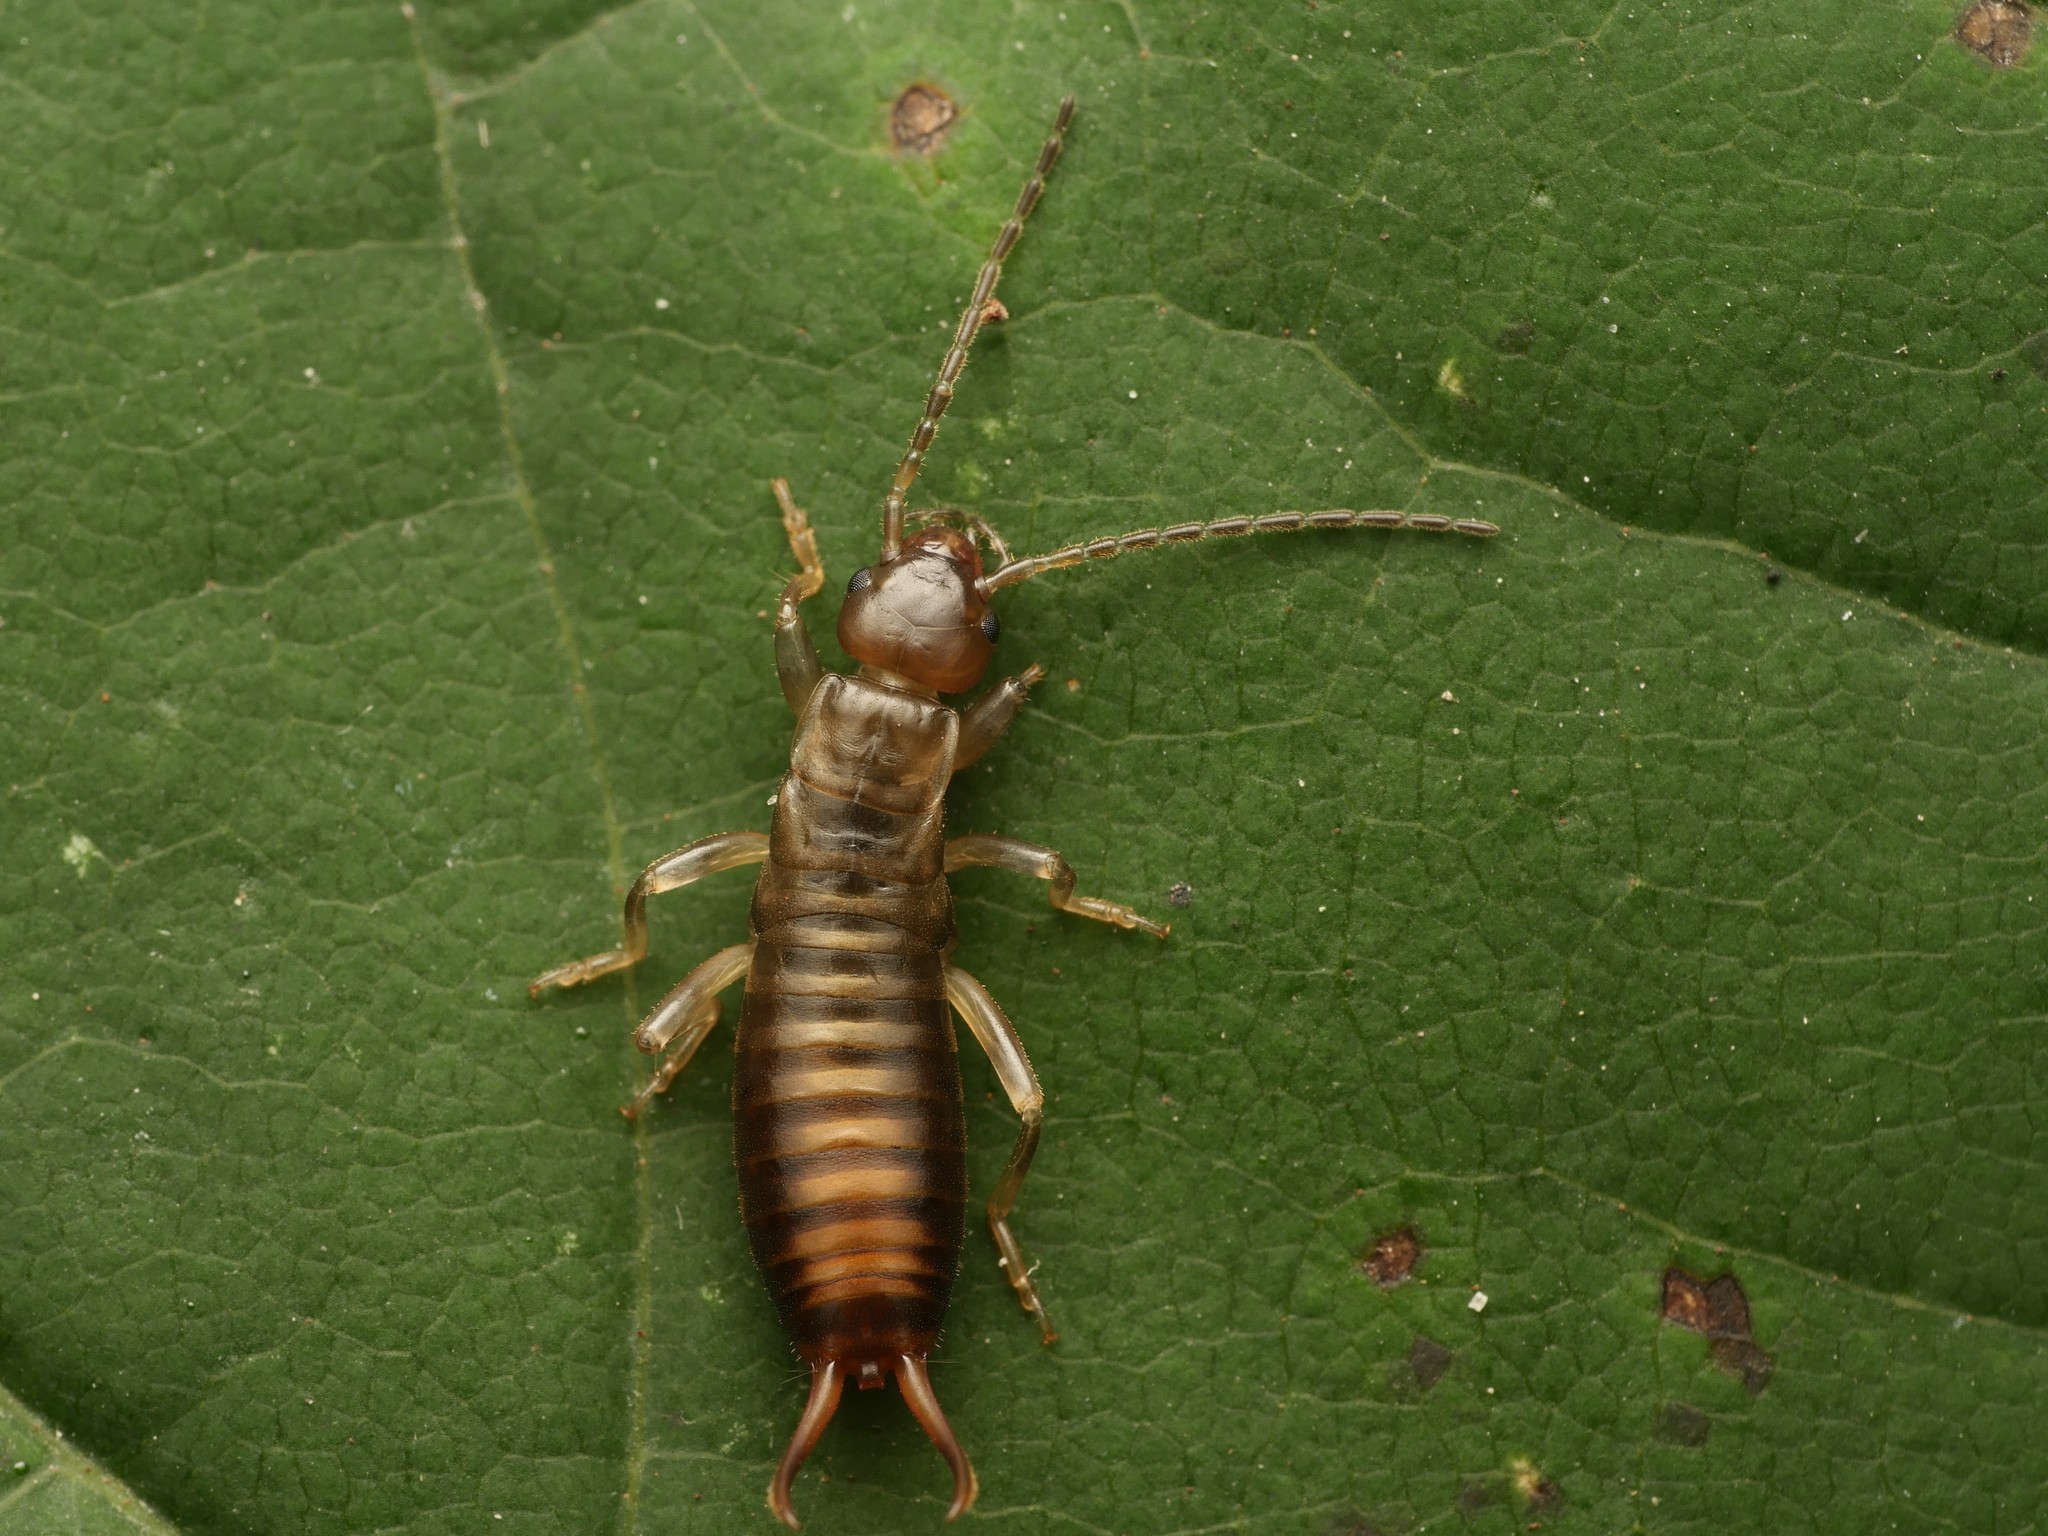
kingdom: Animalia
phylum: Arthropoda
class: Insecta
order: Dermaptera
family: Forficulidae
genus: Forficula
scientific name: Forficula
